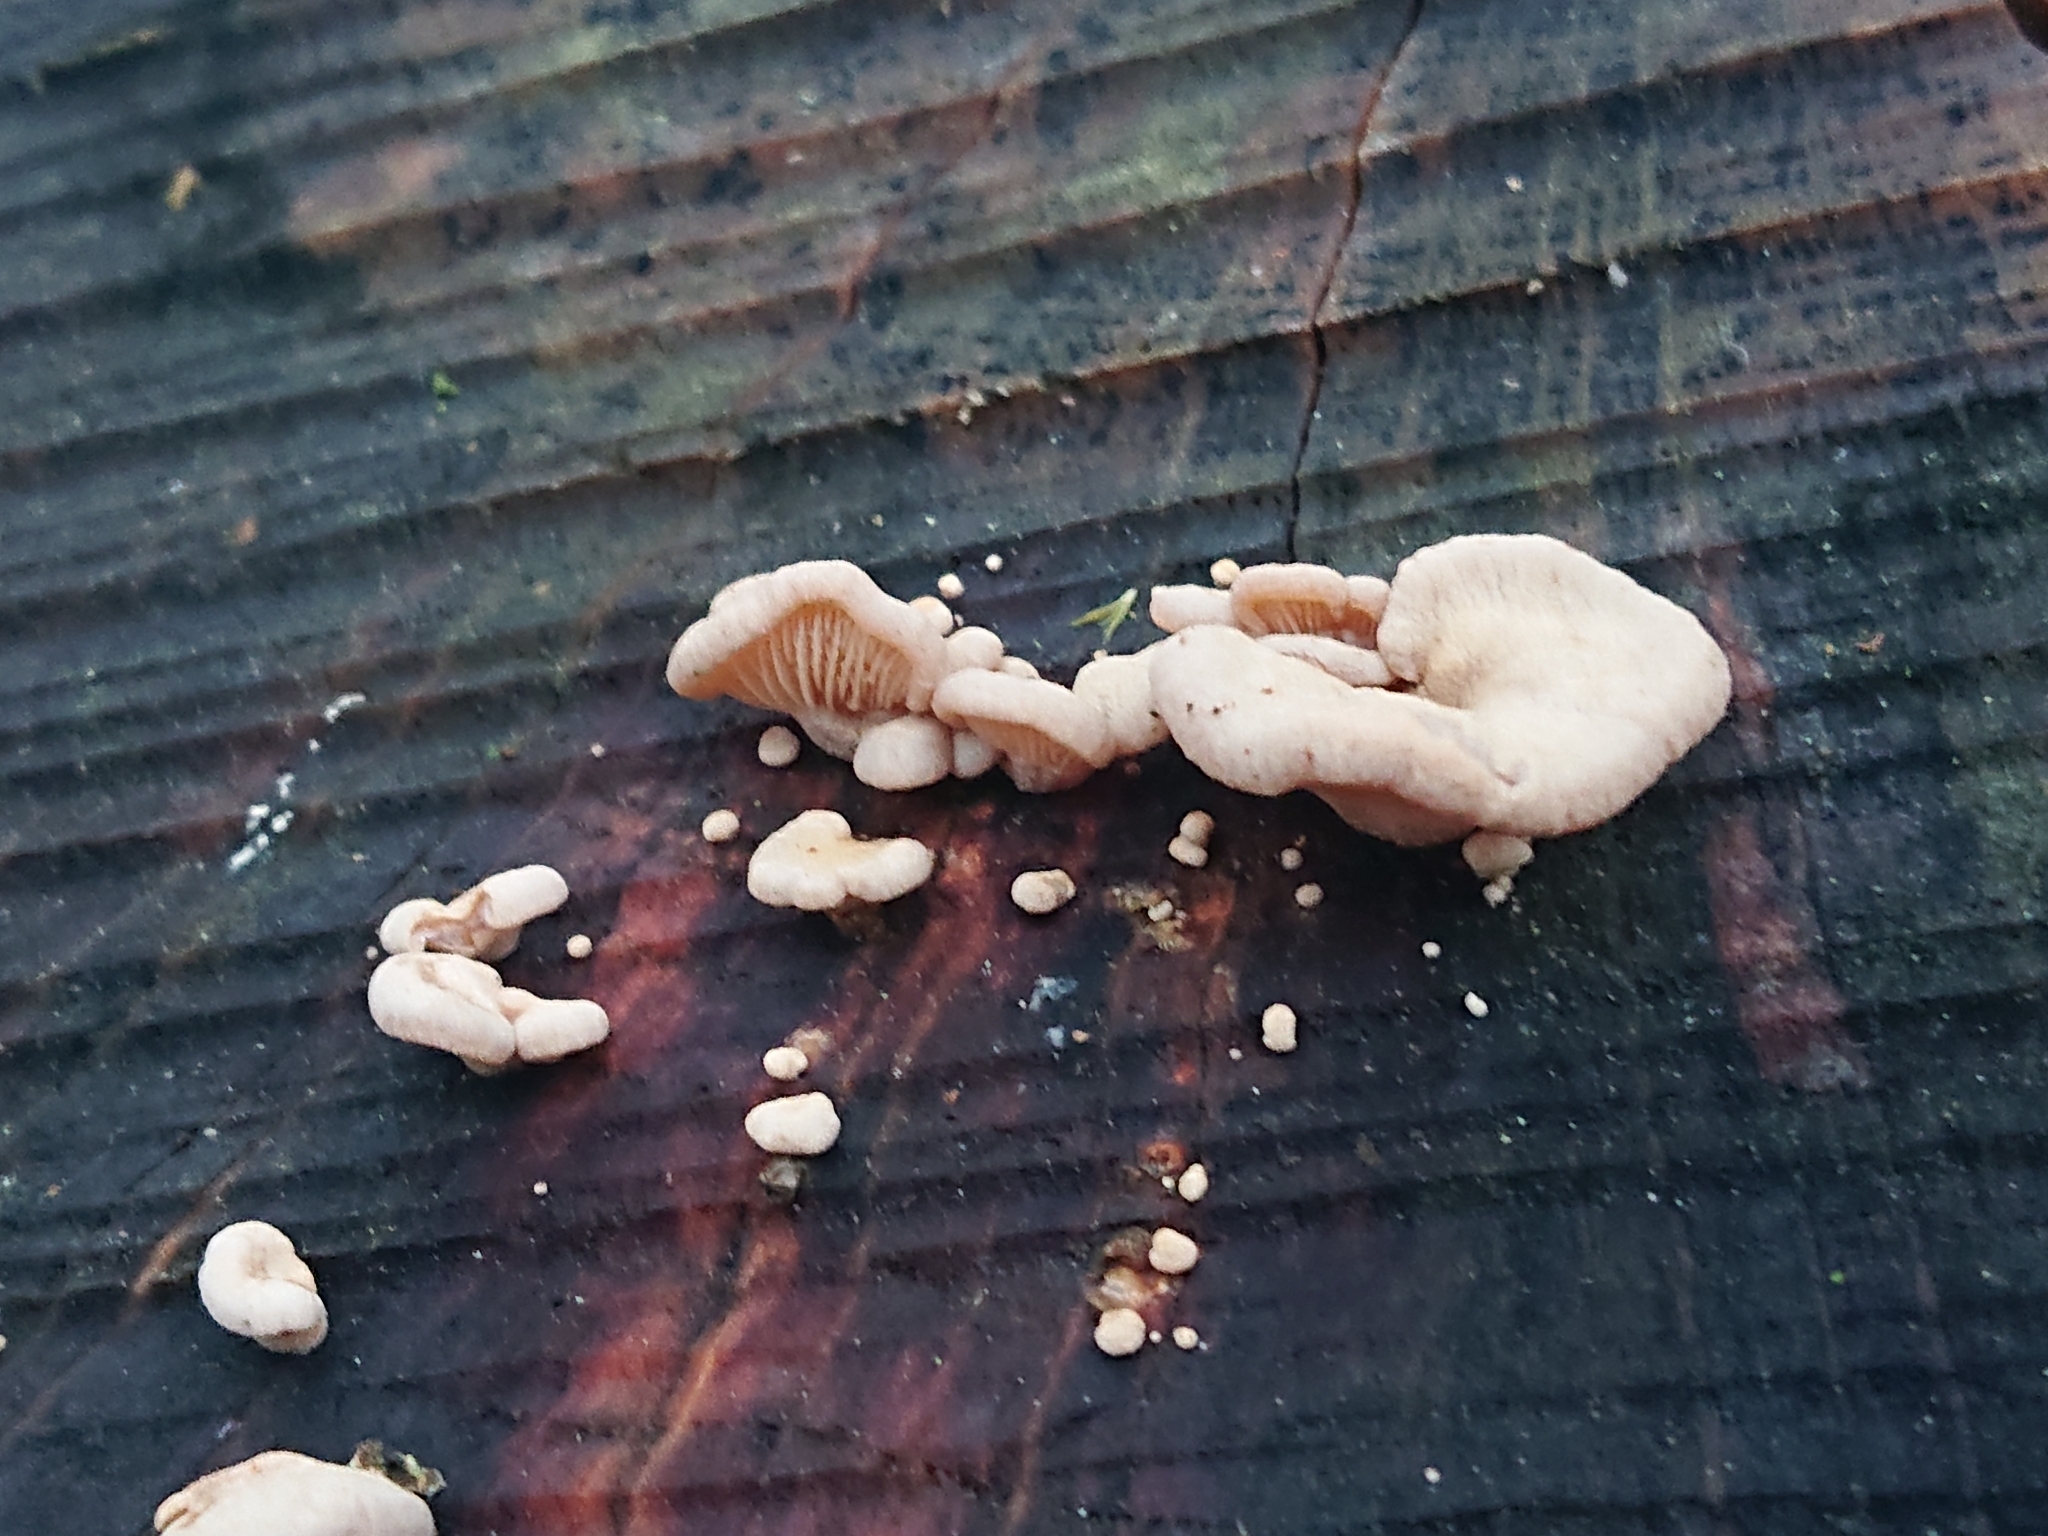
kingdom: Fungi
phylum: Basidiomycota
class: Agaricomycetes
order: Agaricales
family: Mycenaceae
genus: Panellus
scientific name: Panellus stipticus
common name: Bitter oysterling
